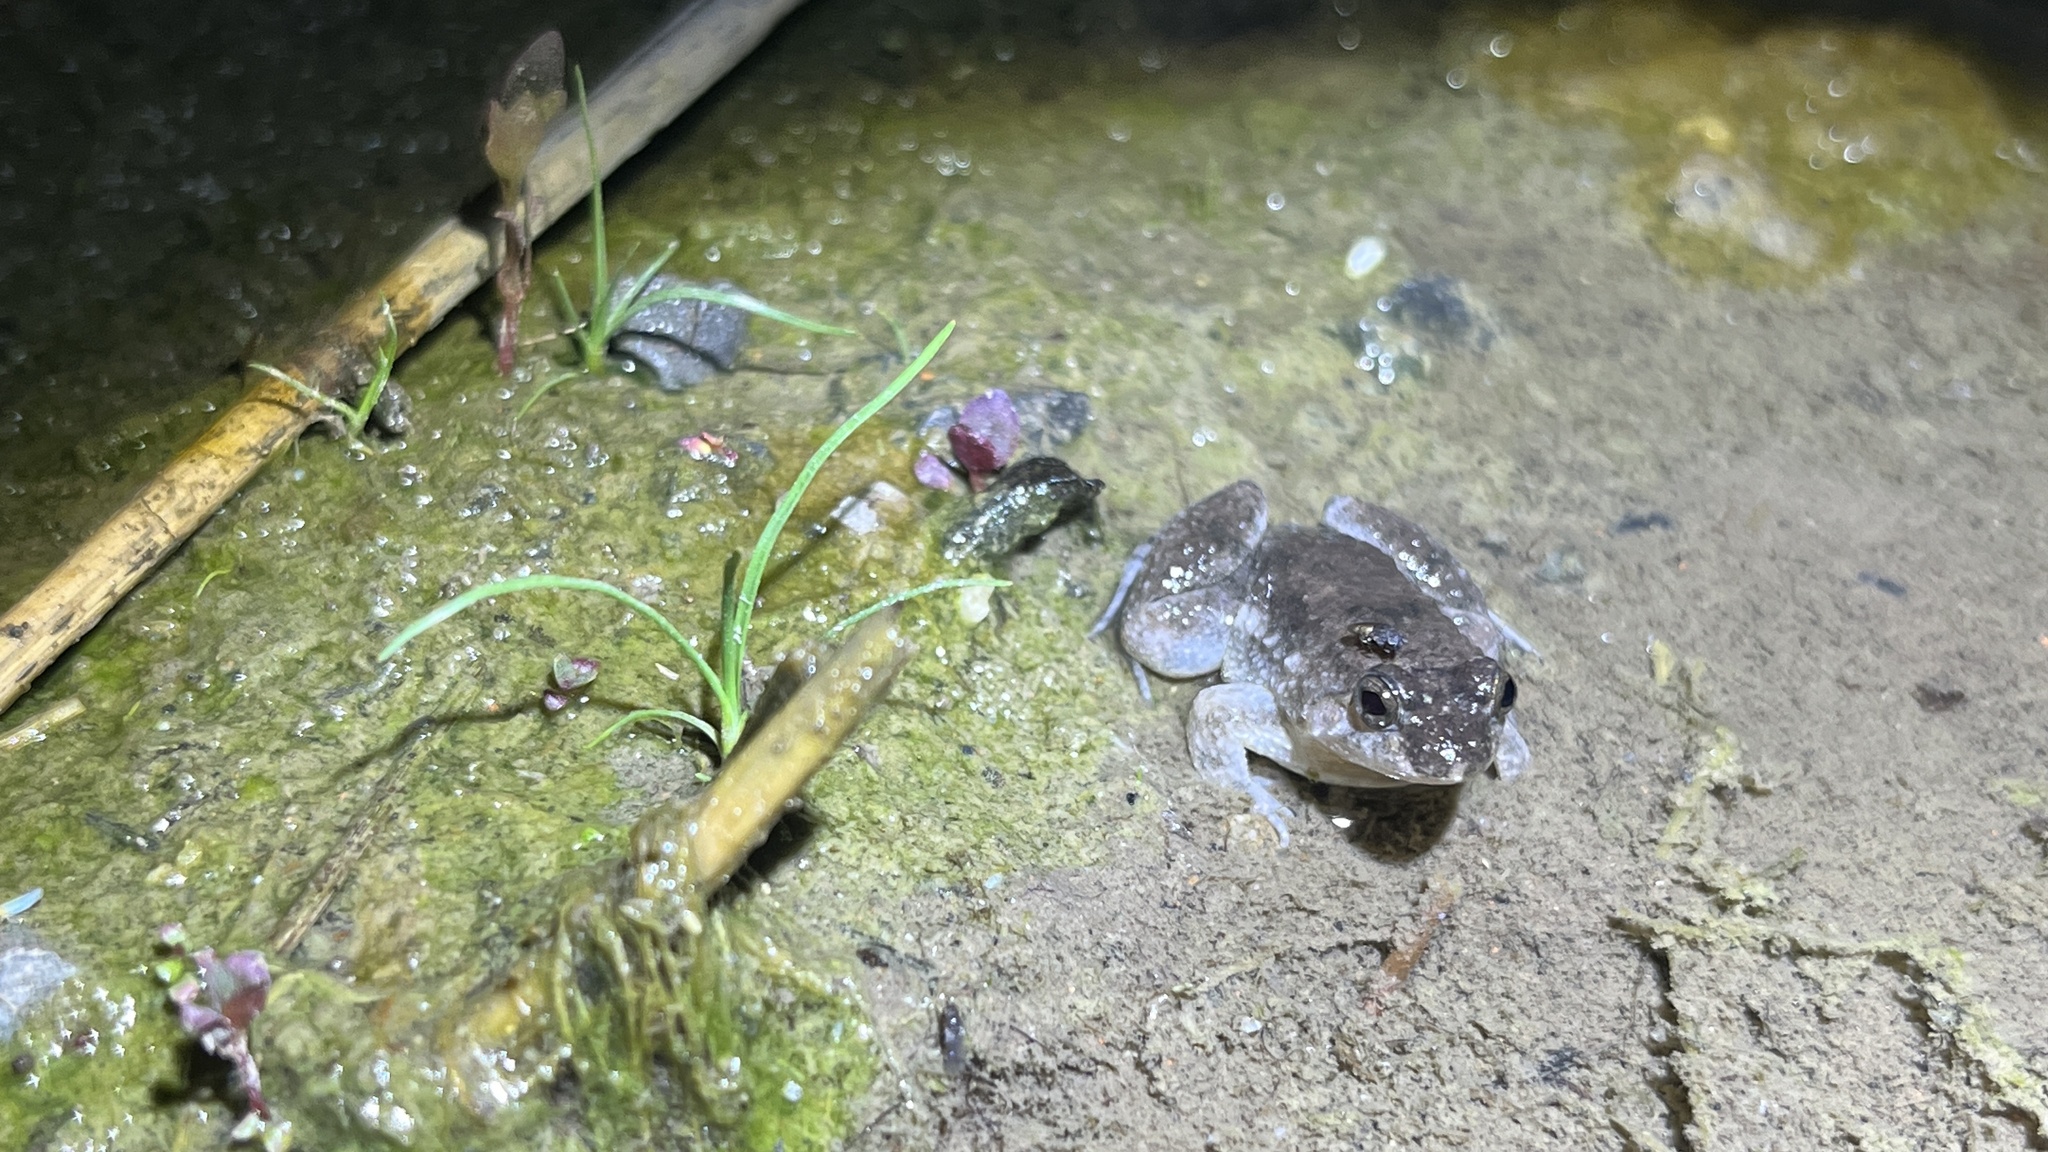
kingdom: Animalia
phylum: Chordata
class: Amphibia
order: Anura
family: Dicroglossidae
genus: Occidozyga
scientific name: Occidozyga martensii
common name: Marten’s oriental frog/round-tongued floating frog
